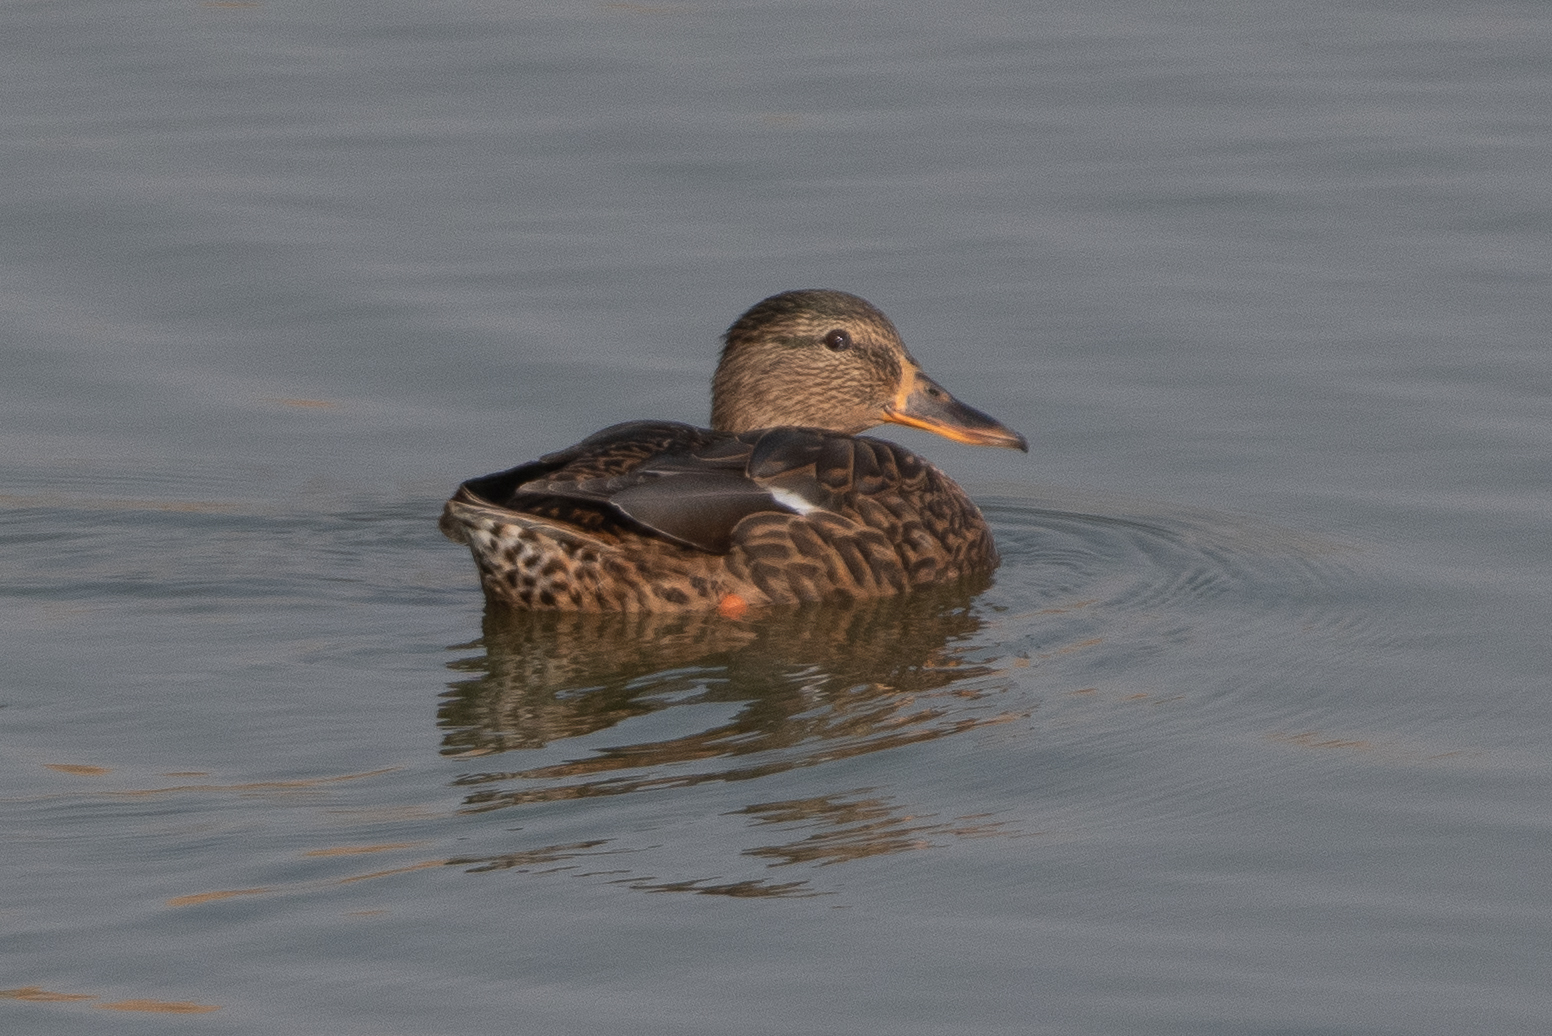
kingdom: Animalia
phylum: Chordata
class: Aves
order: Anseriformes
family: Anatidae
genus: Anas
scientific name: Anas platyrhynchos
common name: Mallard
